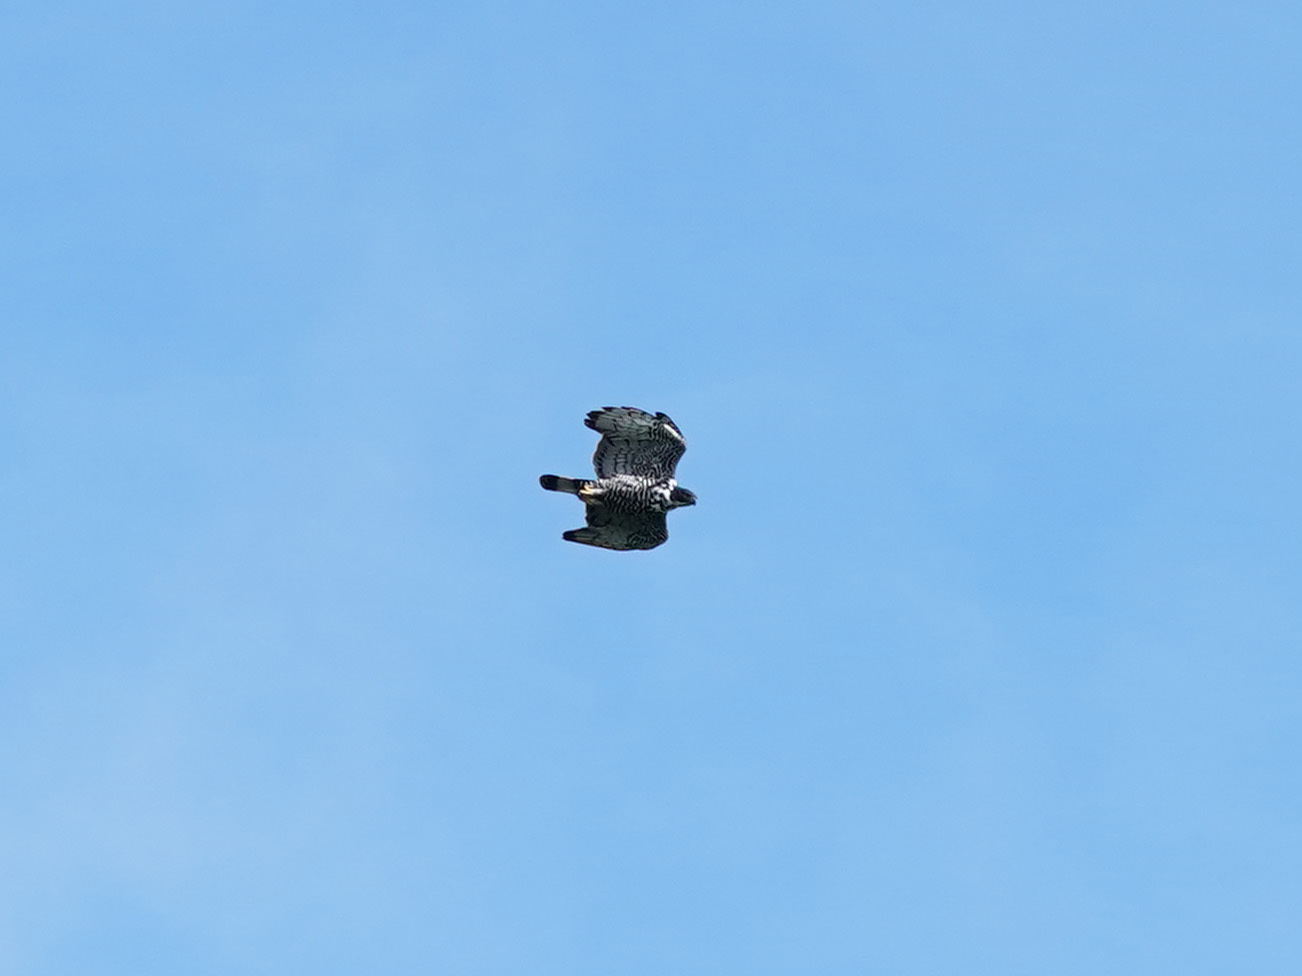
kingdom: Animalia
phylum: Chordata
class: Aves
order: Accipitriformes
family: Accipitridae
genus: Nisaetus
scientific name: Nisaetus alboniger
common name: Blyth's hawk-eagle
